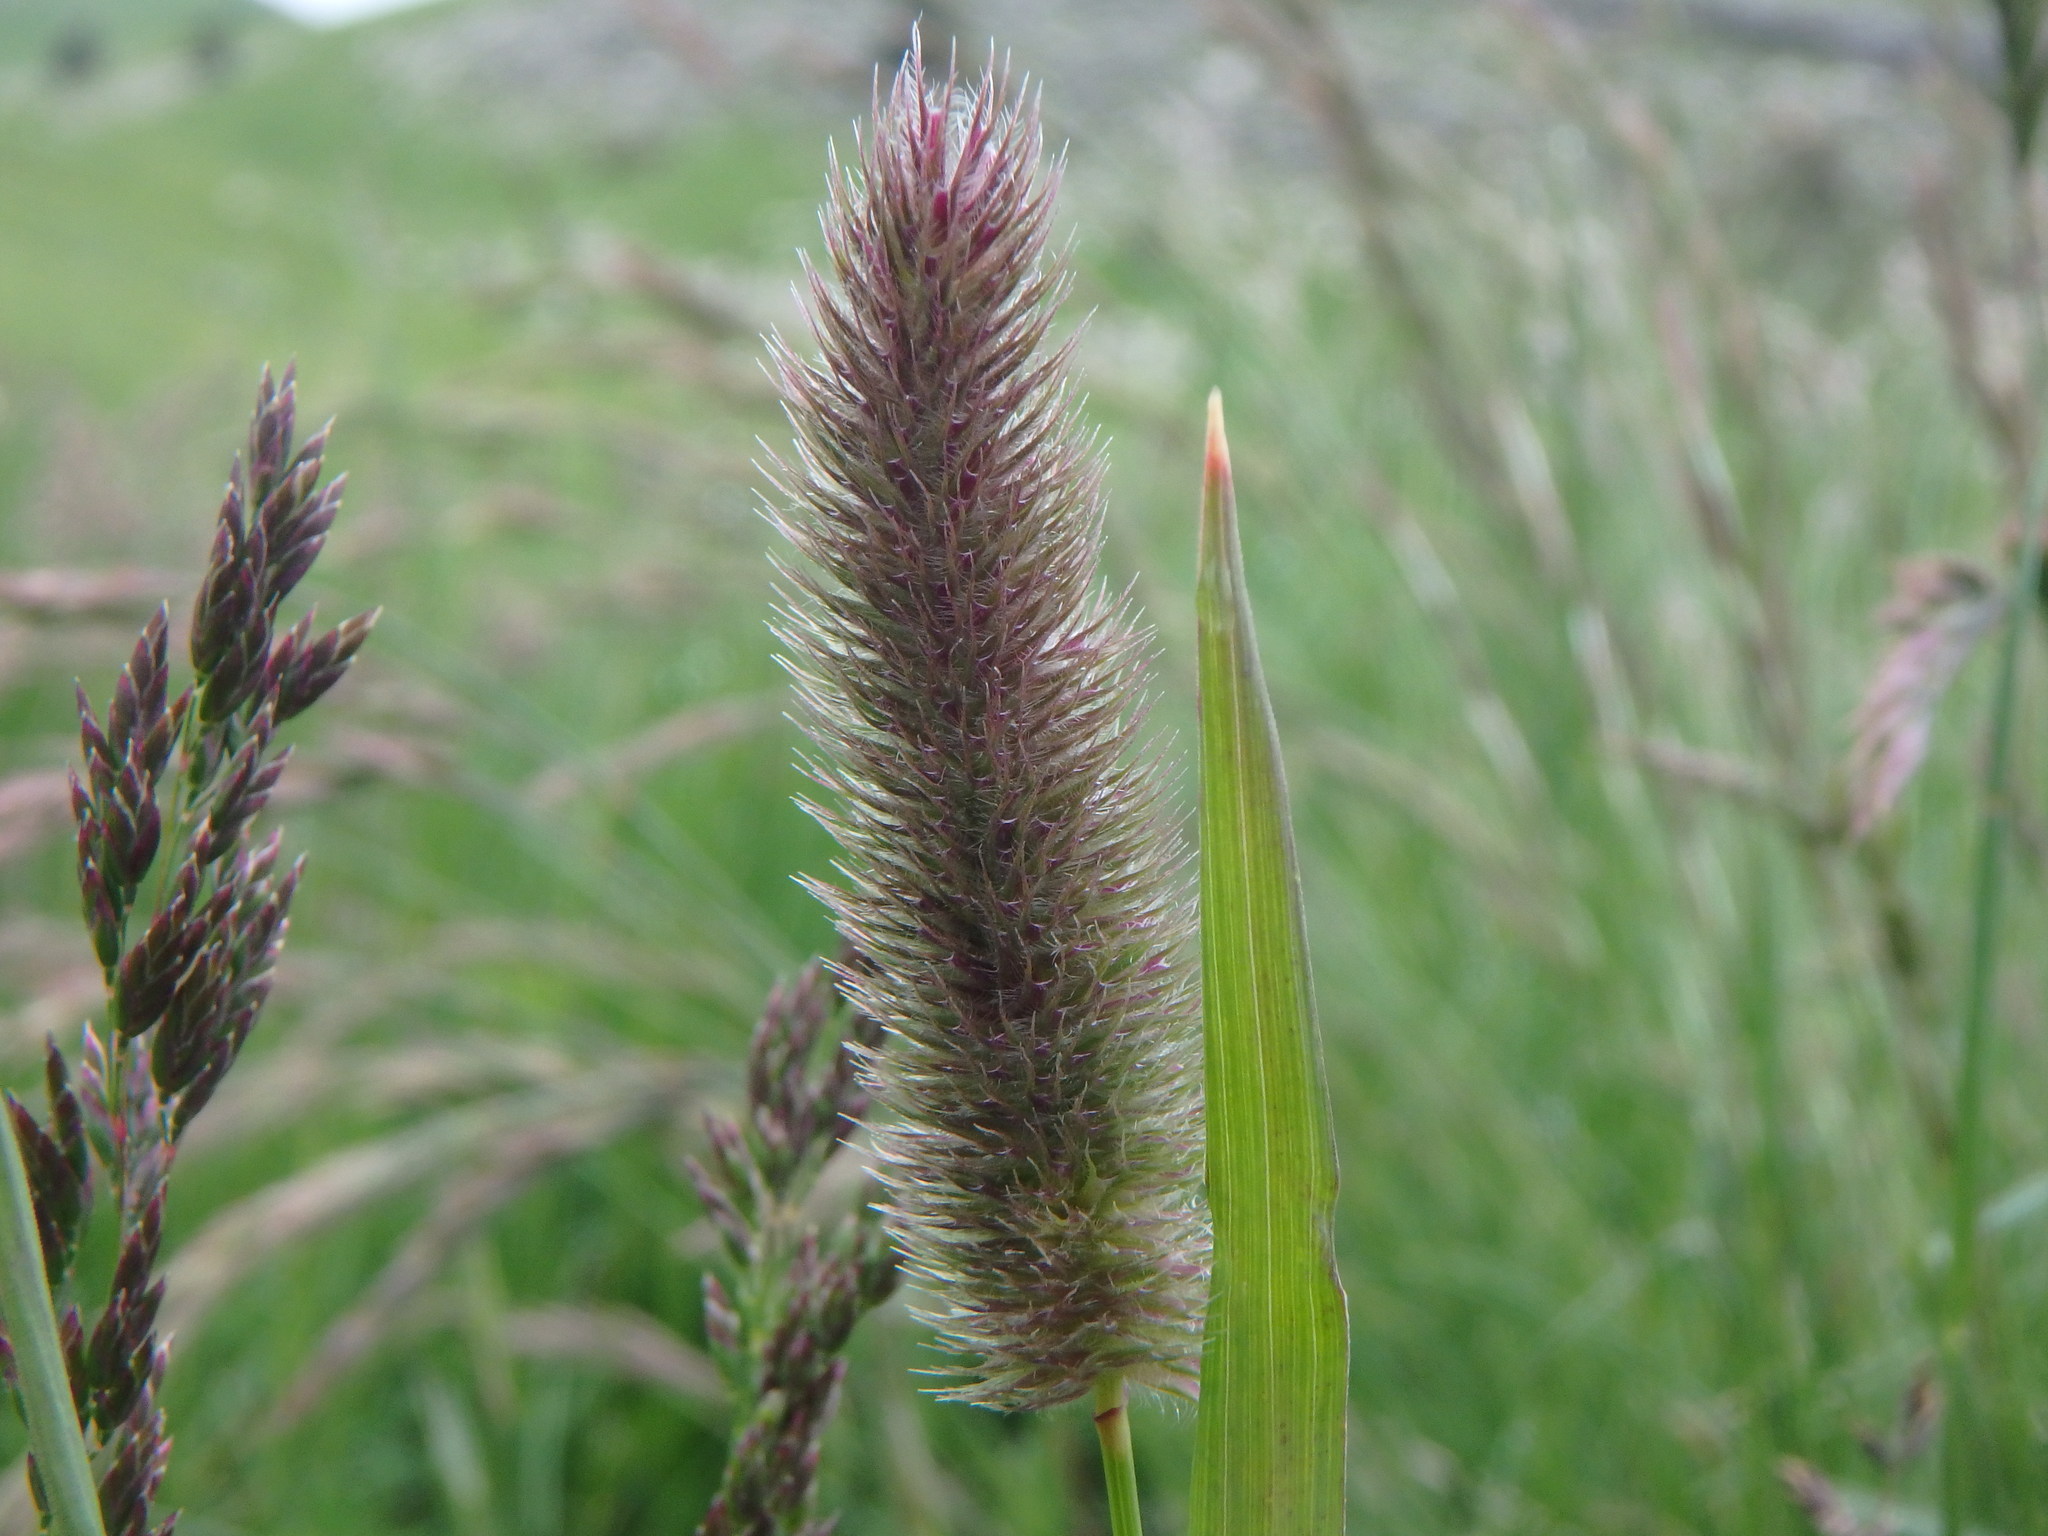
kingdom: Plantae
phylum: Tracheophyta
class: Liliopsida
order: Poales
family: Poaceae
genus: Phleum
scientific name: Phleum alpinum
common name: Alpine cat's-tail
